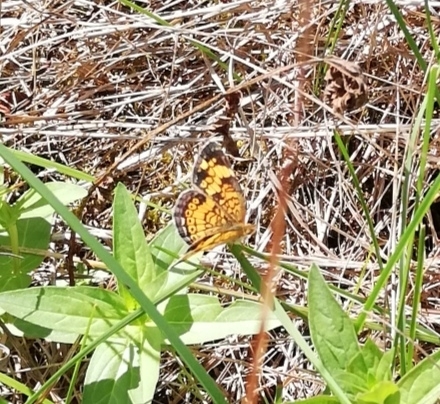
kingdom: Animalia
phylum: Arthropoda
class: Insecta
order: Lepidoptera
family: Nymphalidae
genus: Phyciodes
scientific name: Phyciodes tharos
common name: Pearl crescent
